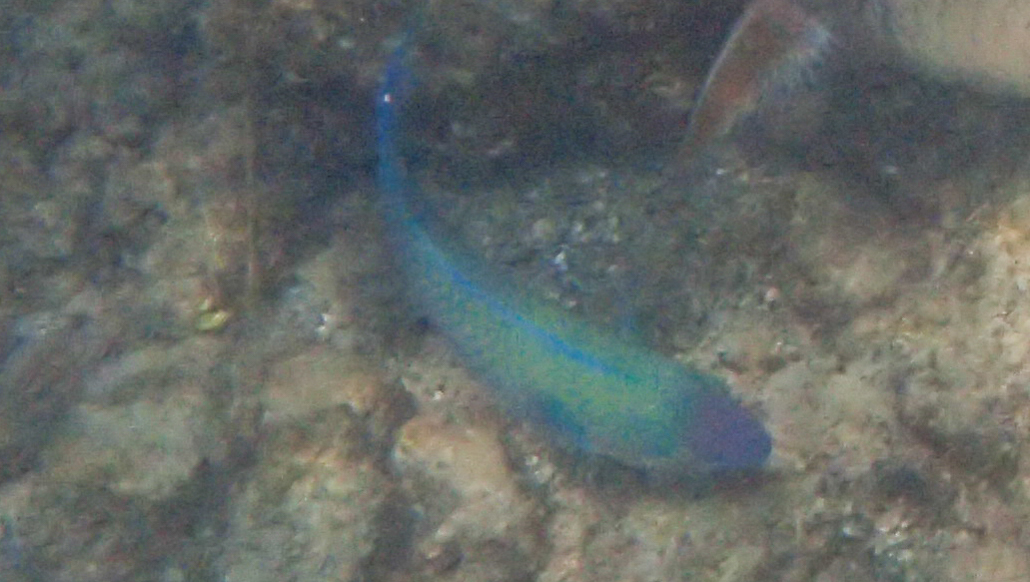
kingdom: Animalia
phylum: Chordata
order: Perciformes
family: Scaridae
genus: Scarus
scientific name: Scarus psittacus
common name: Palenose parrotfish
